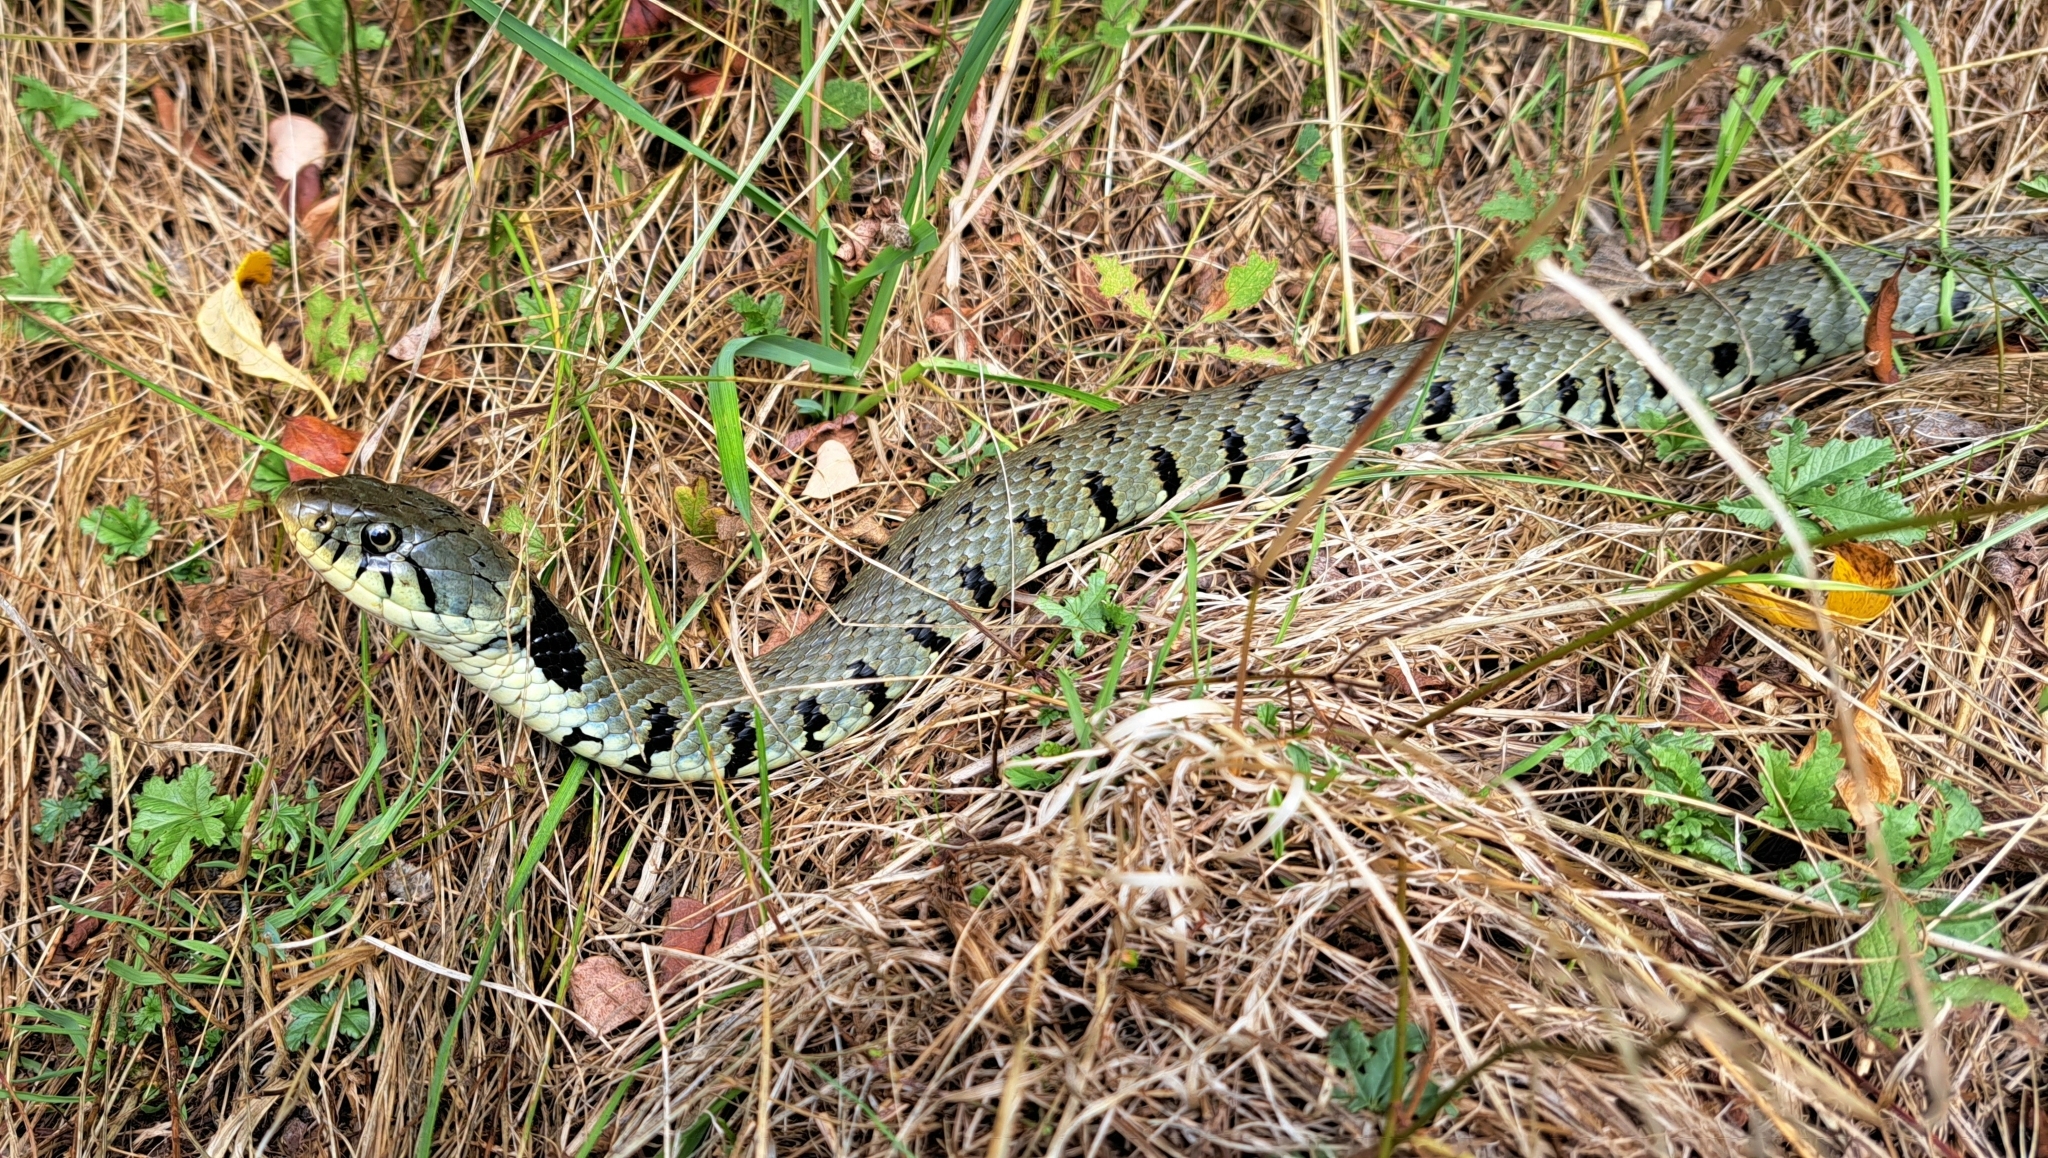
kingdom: Animalia
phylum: Chordata
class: Squamata
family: Colubridae
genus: Natrix
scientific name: Natrix helvetica
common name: Banded grass snake
